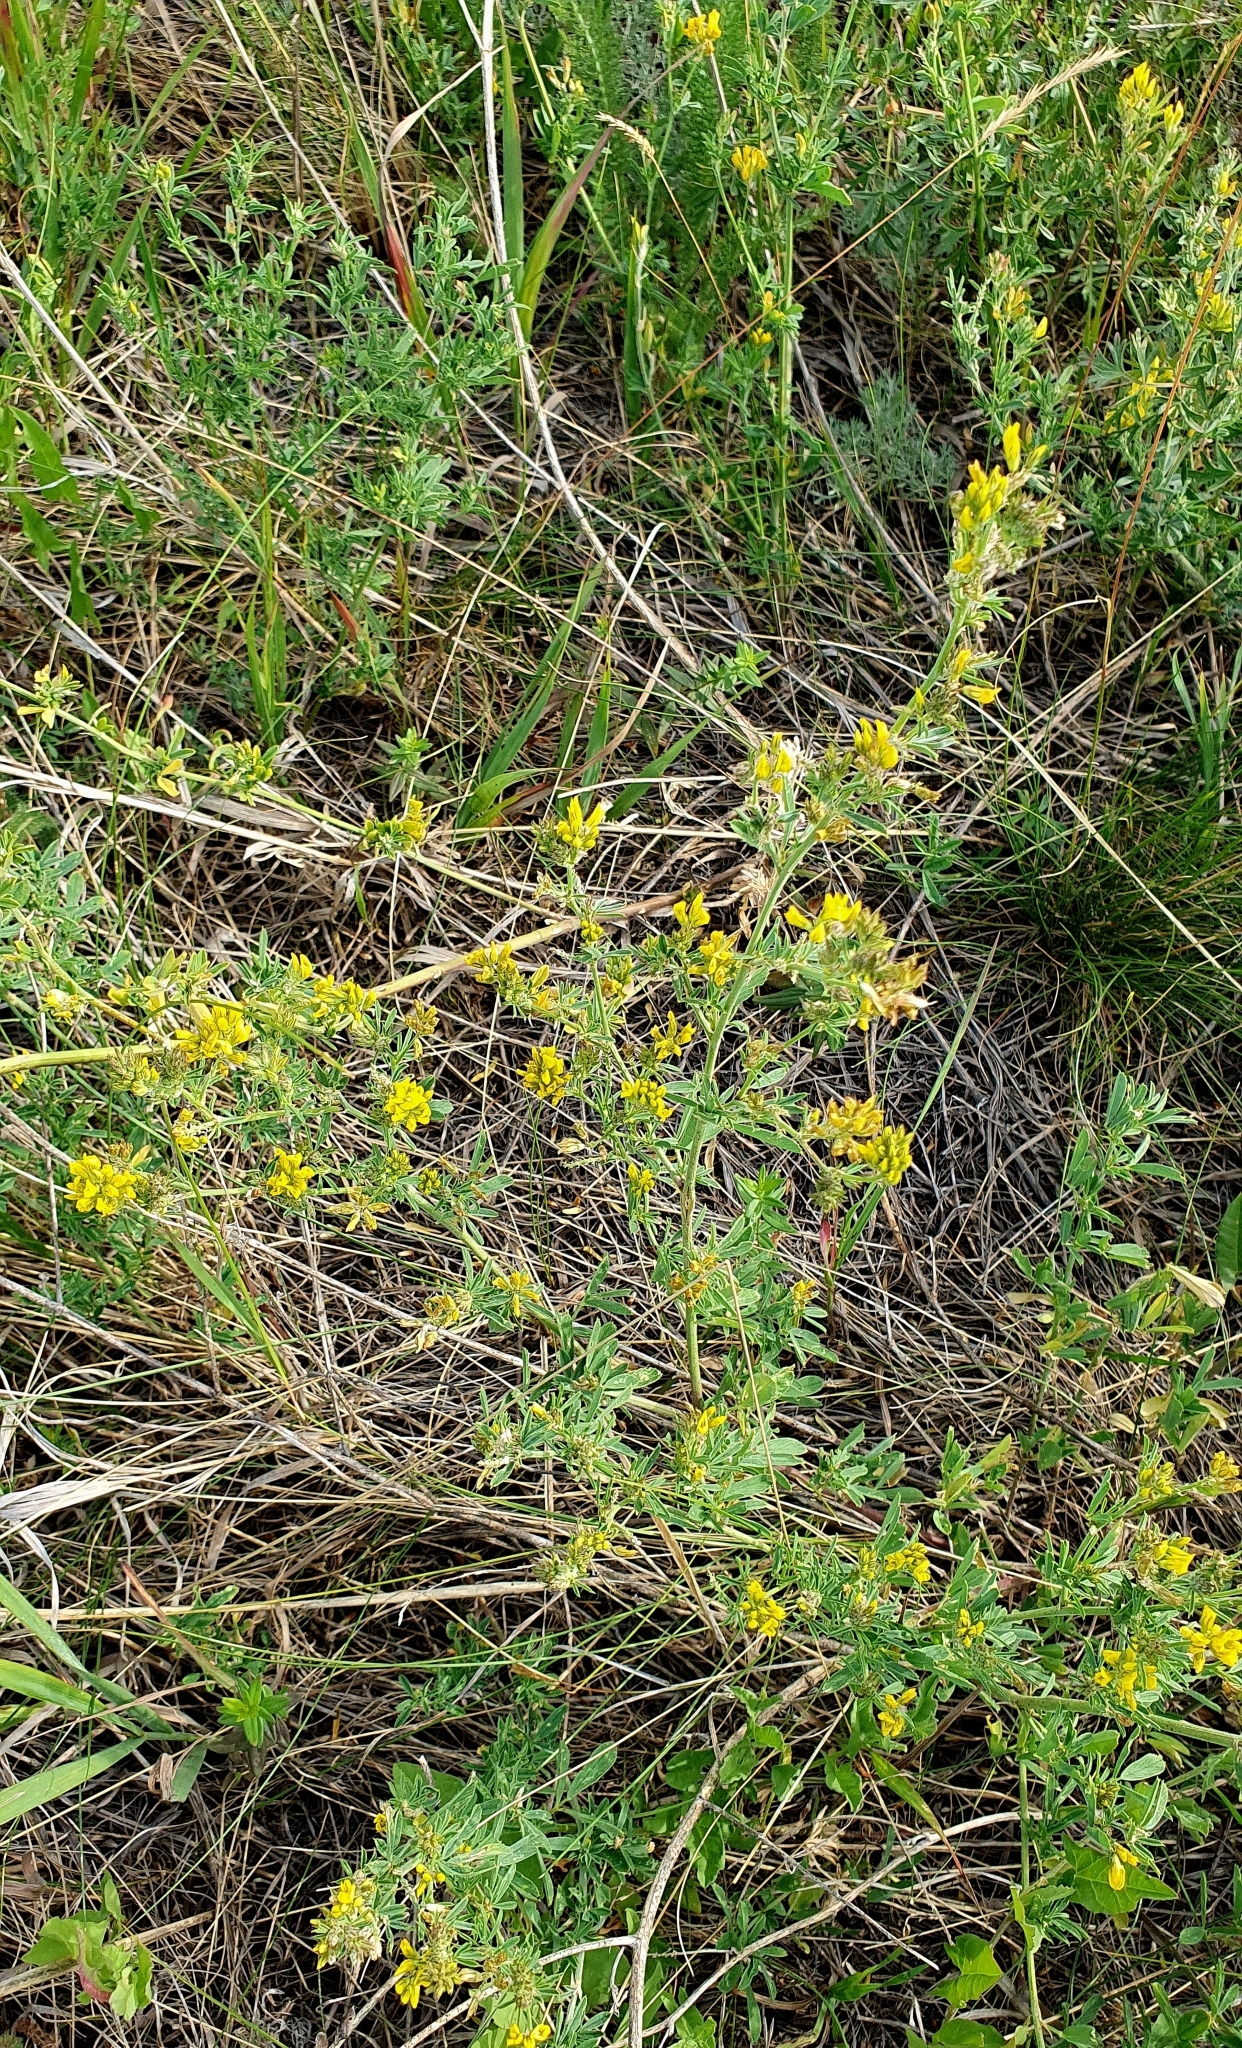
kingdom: Plantae
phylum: Tracheophyta
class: Magnoliopsida
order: Fabales
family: Fabaceae
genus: Medicago
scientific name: Medicago falcata
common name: Sickle medick
